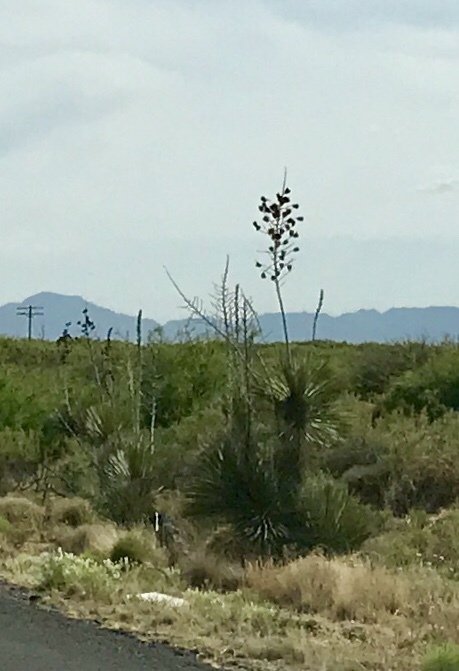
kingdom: Plantae
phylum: Tracheophyta
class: Liliopsida
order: Asparagales
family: Asparagaceae
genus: Yucca
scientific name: Yucca elata
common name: Palmella
